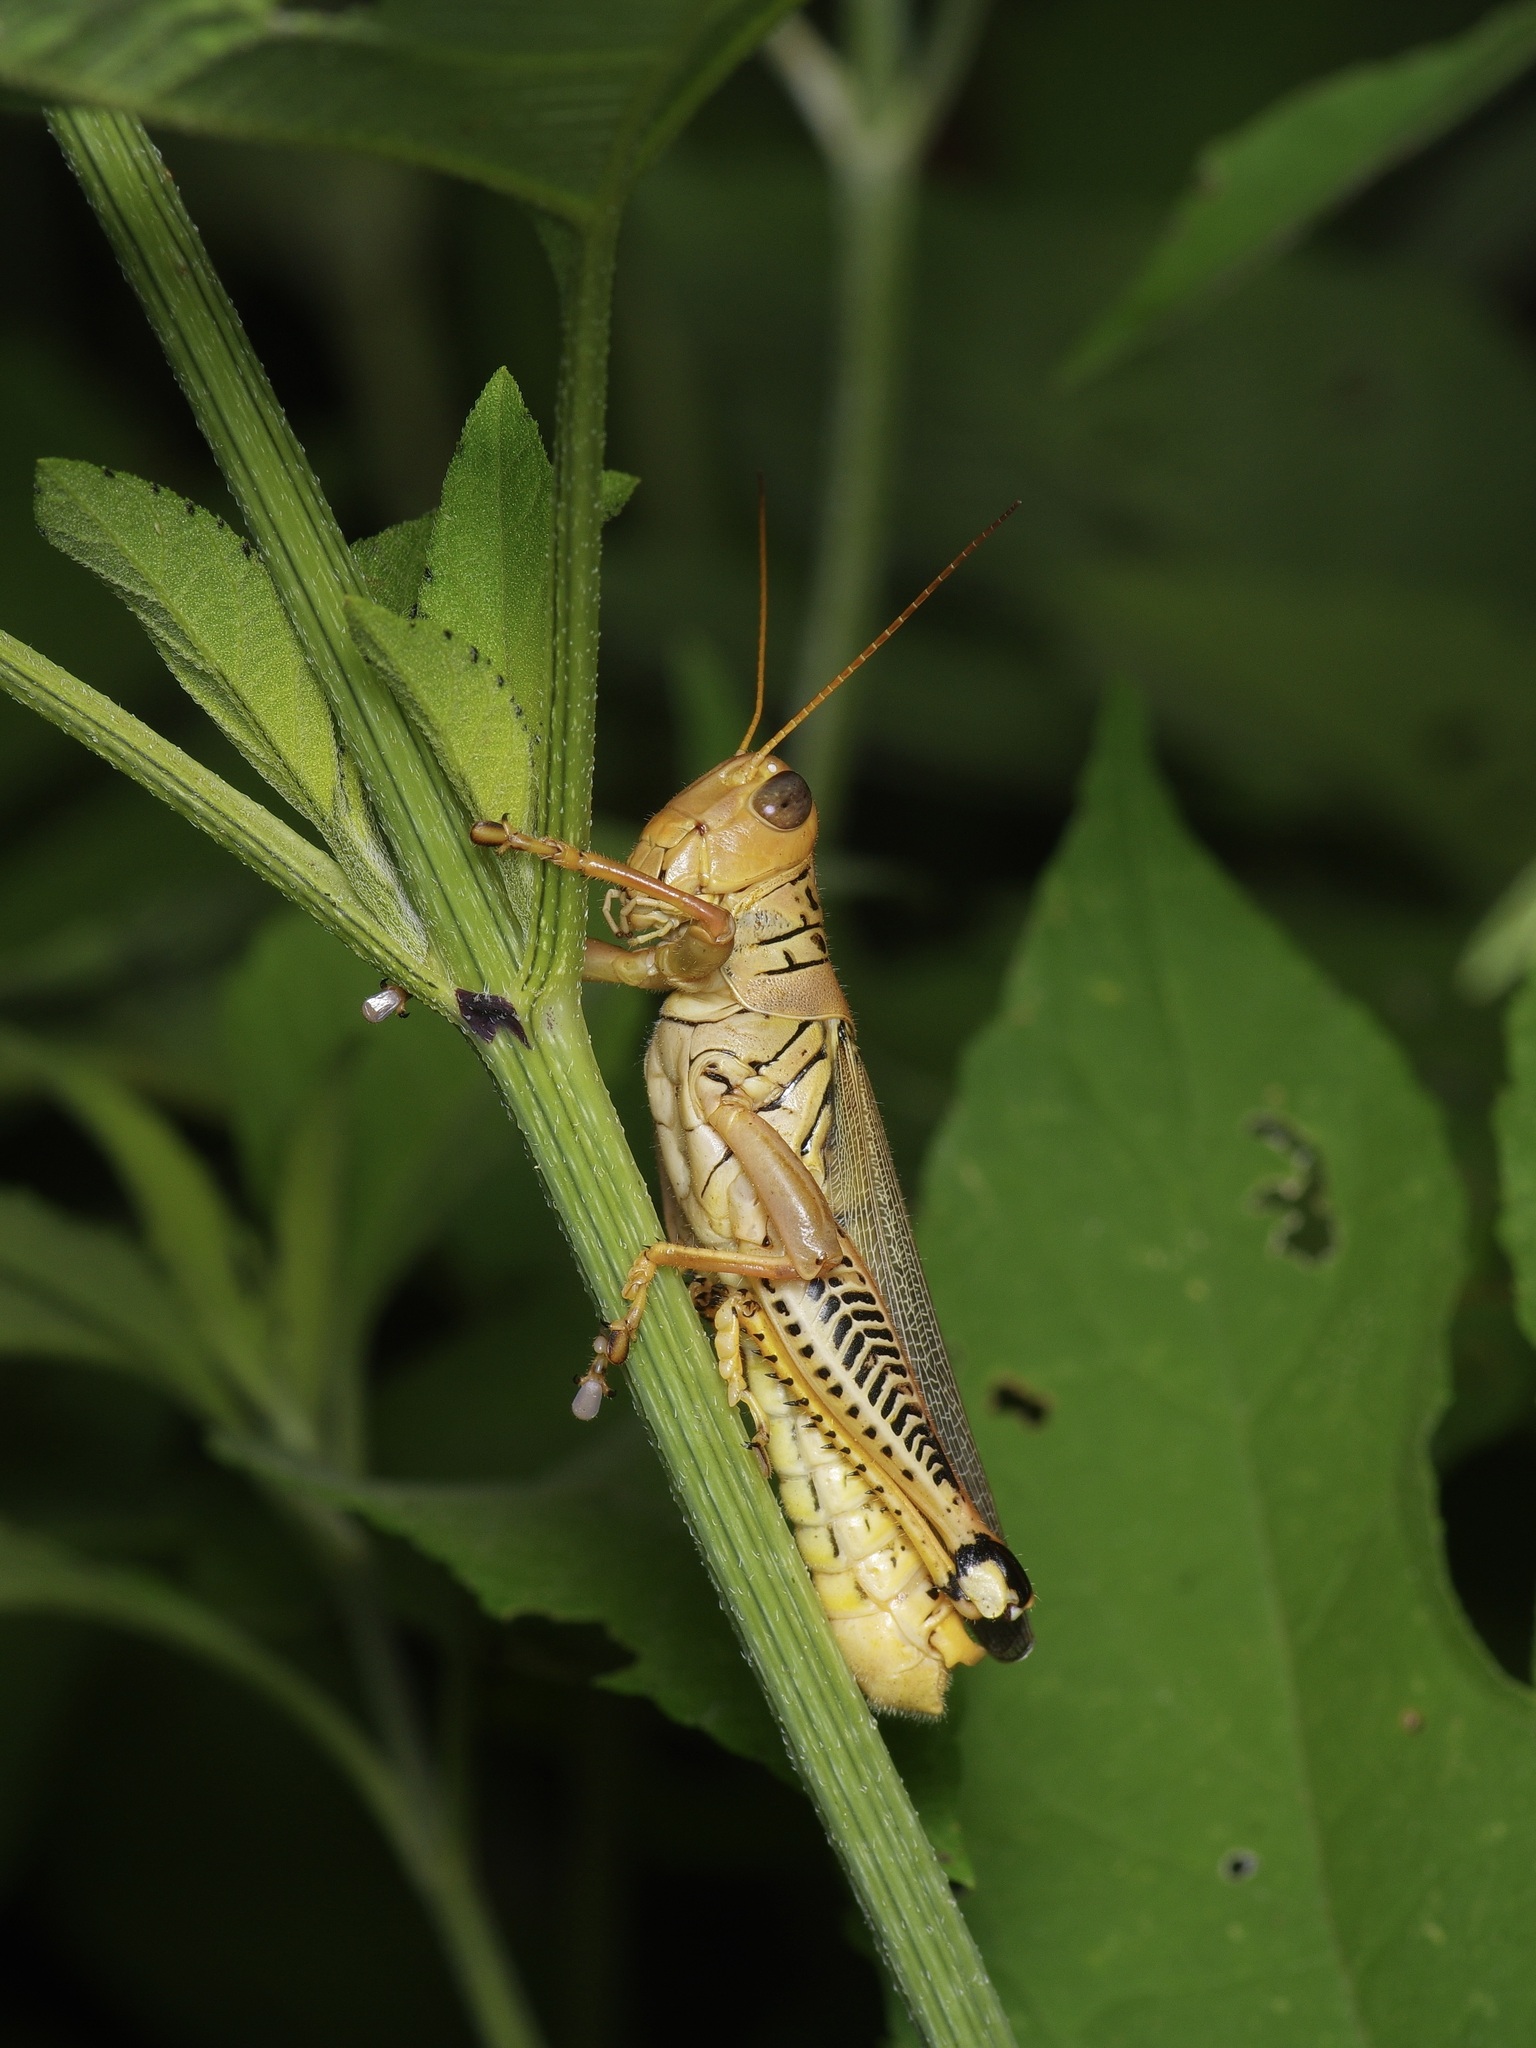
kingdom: Animalia
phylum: Arthropoda
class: Insecta
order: Orthoptera
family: Acrididae
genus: Melanoplus
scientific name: Melanoplus differentialis
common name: Differential grasshopper
